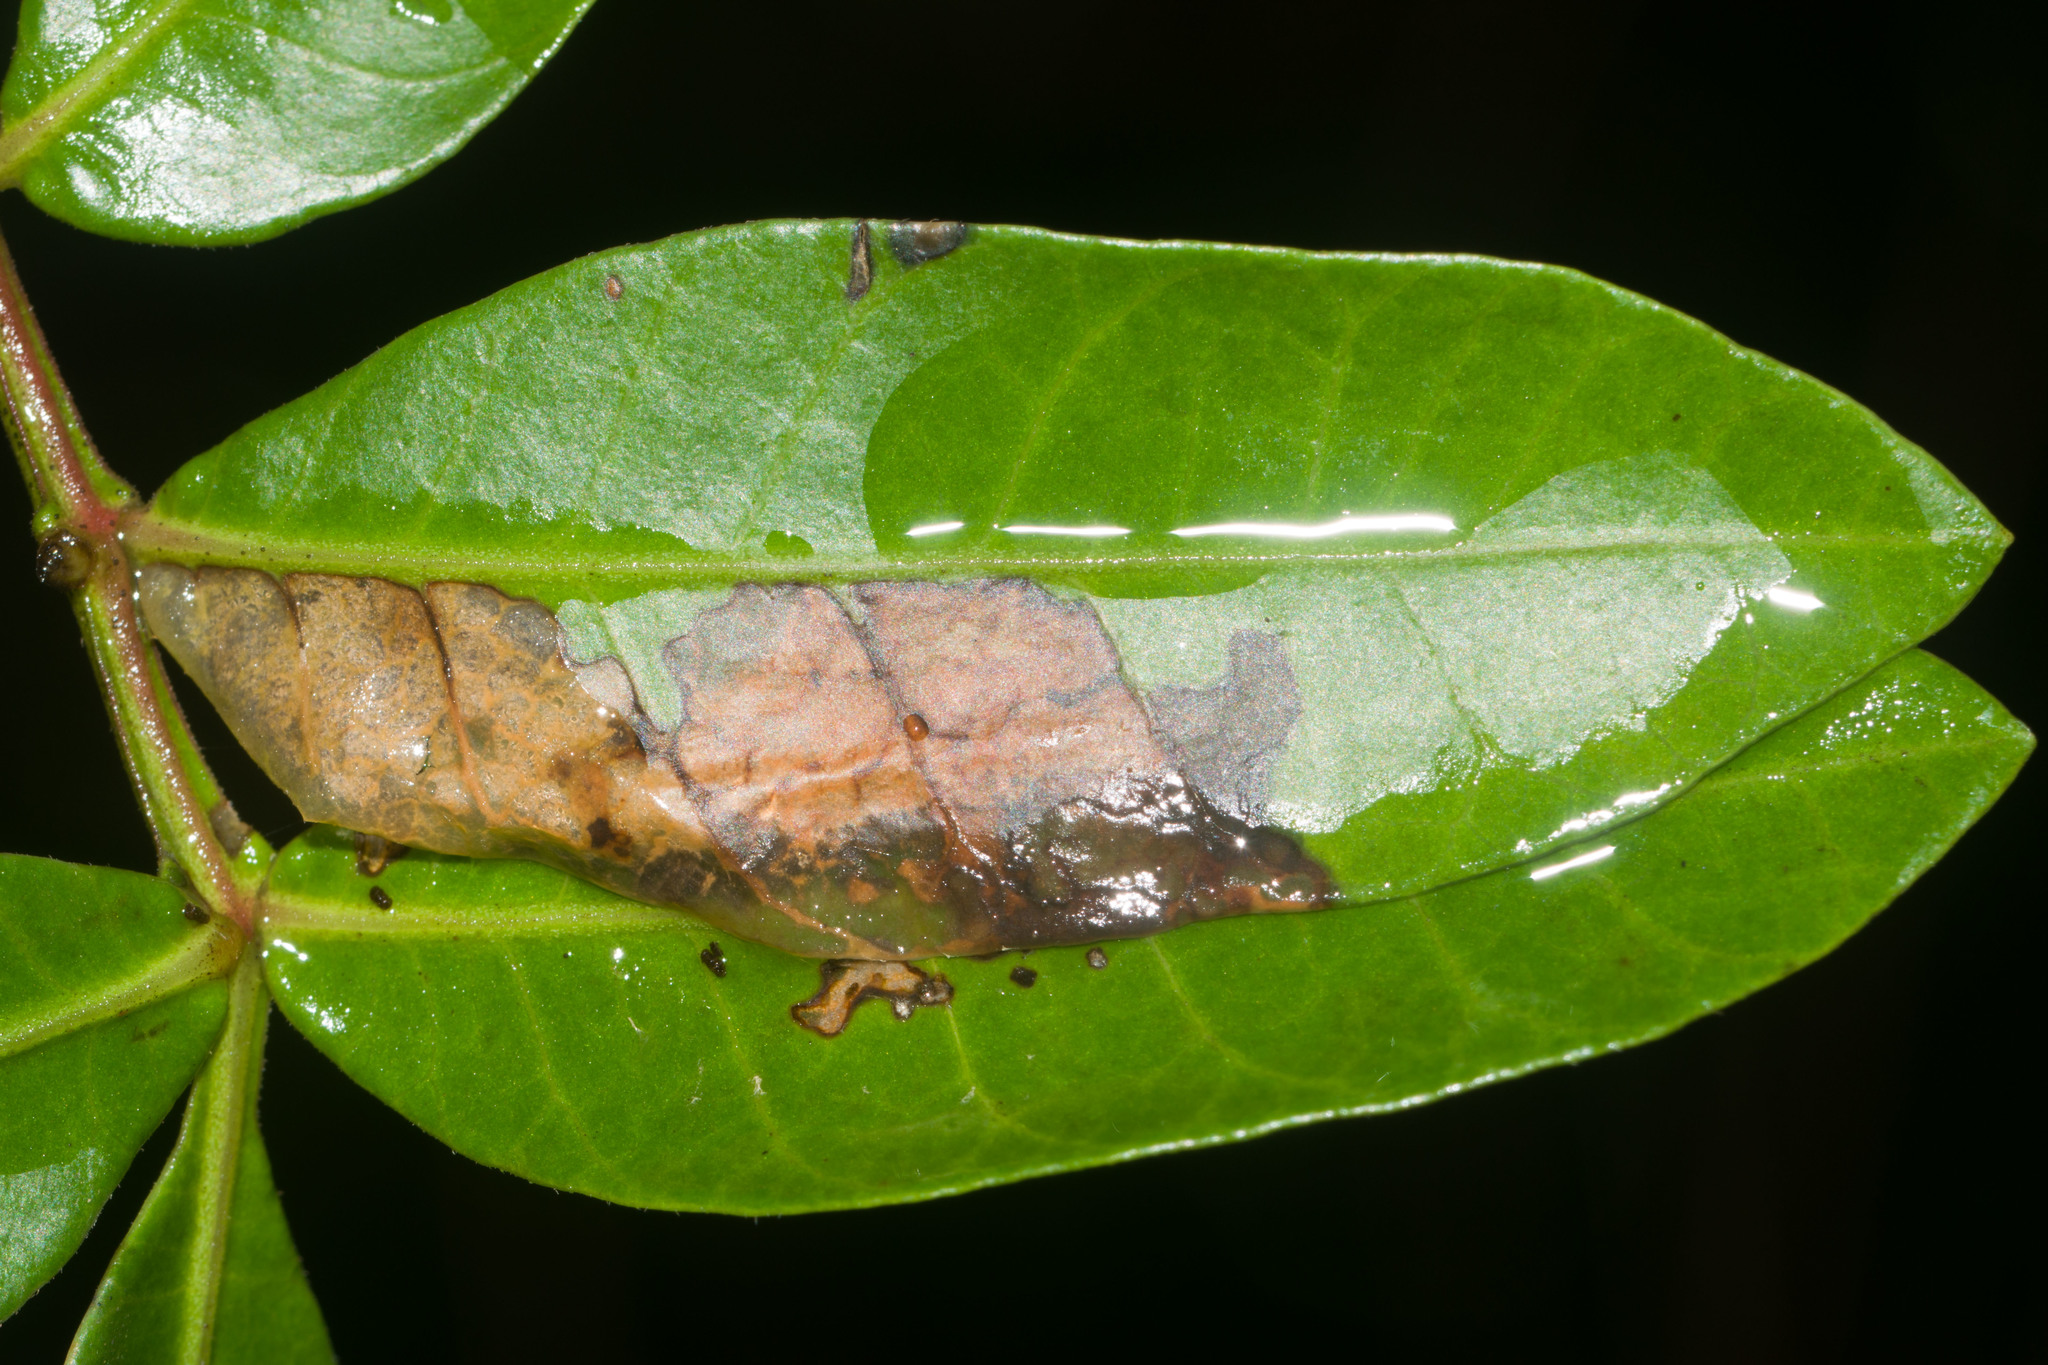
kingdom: Animalia
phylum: Arthropoda
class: Insecta
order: Lepidoptera
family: Tortricidae
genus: Episimus
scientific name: Episimus unguiculus
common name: Brazilian peppertree leaflet rolling moth
